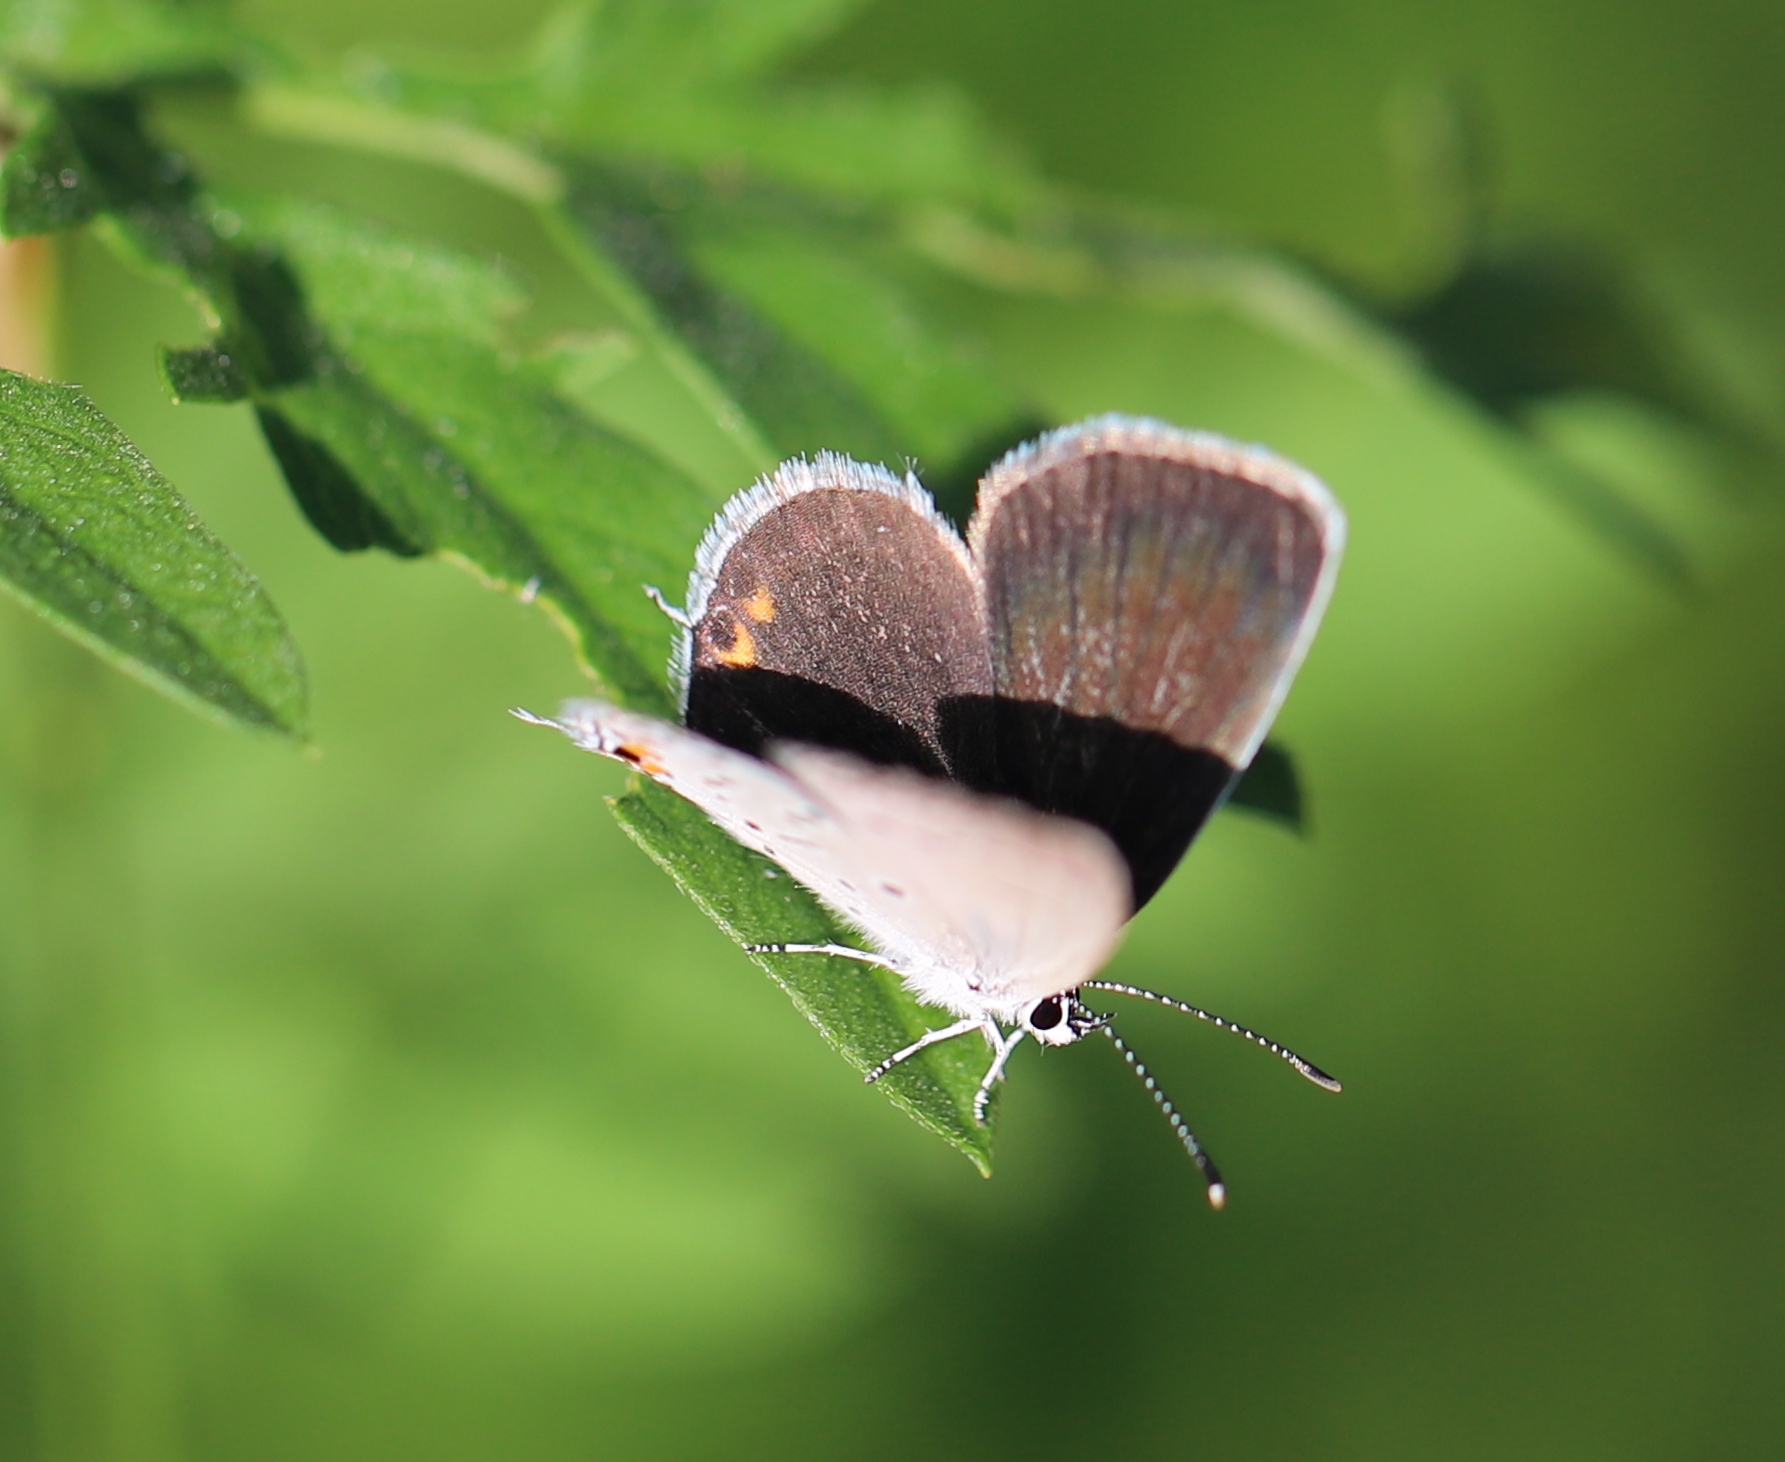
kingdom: Animalia
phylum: Arthropoda
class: Insecta
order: Lepidoptera
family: Lycaenidae
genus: Elkalyce
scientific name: Elkalyce comyntas
